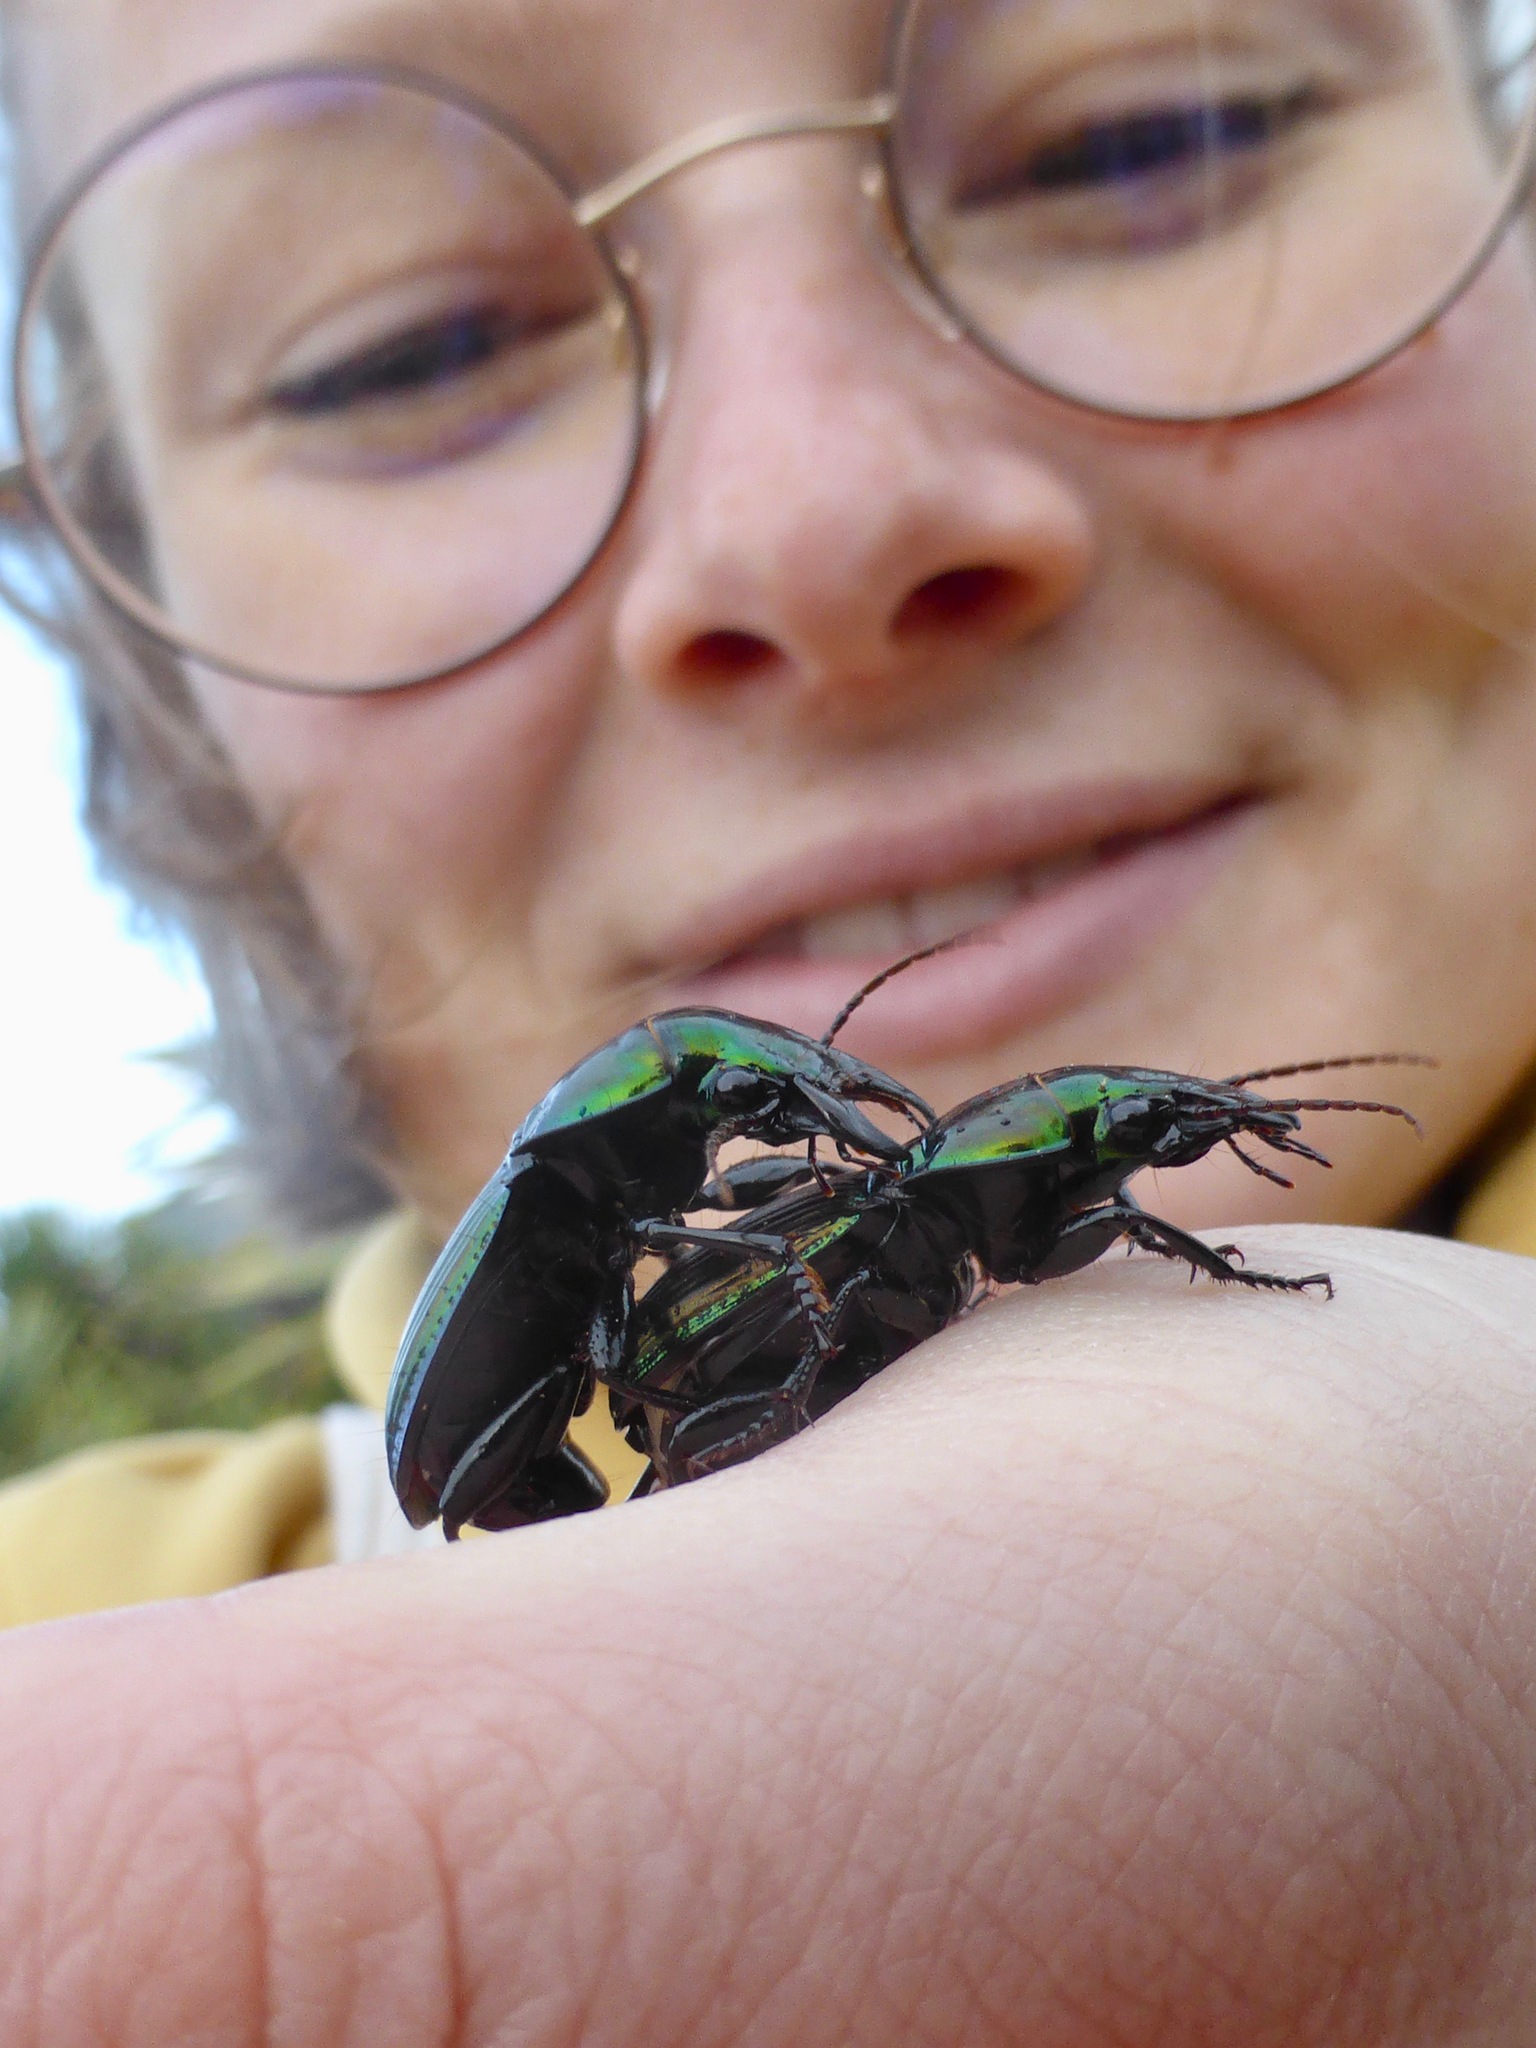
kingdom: Animalia
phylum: Arthropoda
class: Insecta
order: Coleoptera
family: Carabidae
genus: Megadromus
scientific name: Megadromus antarcticus
